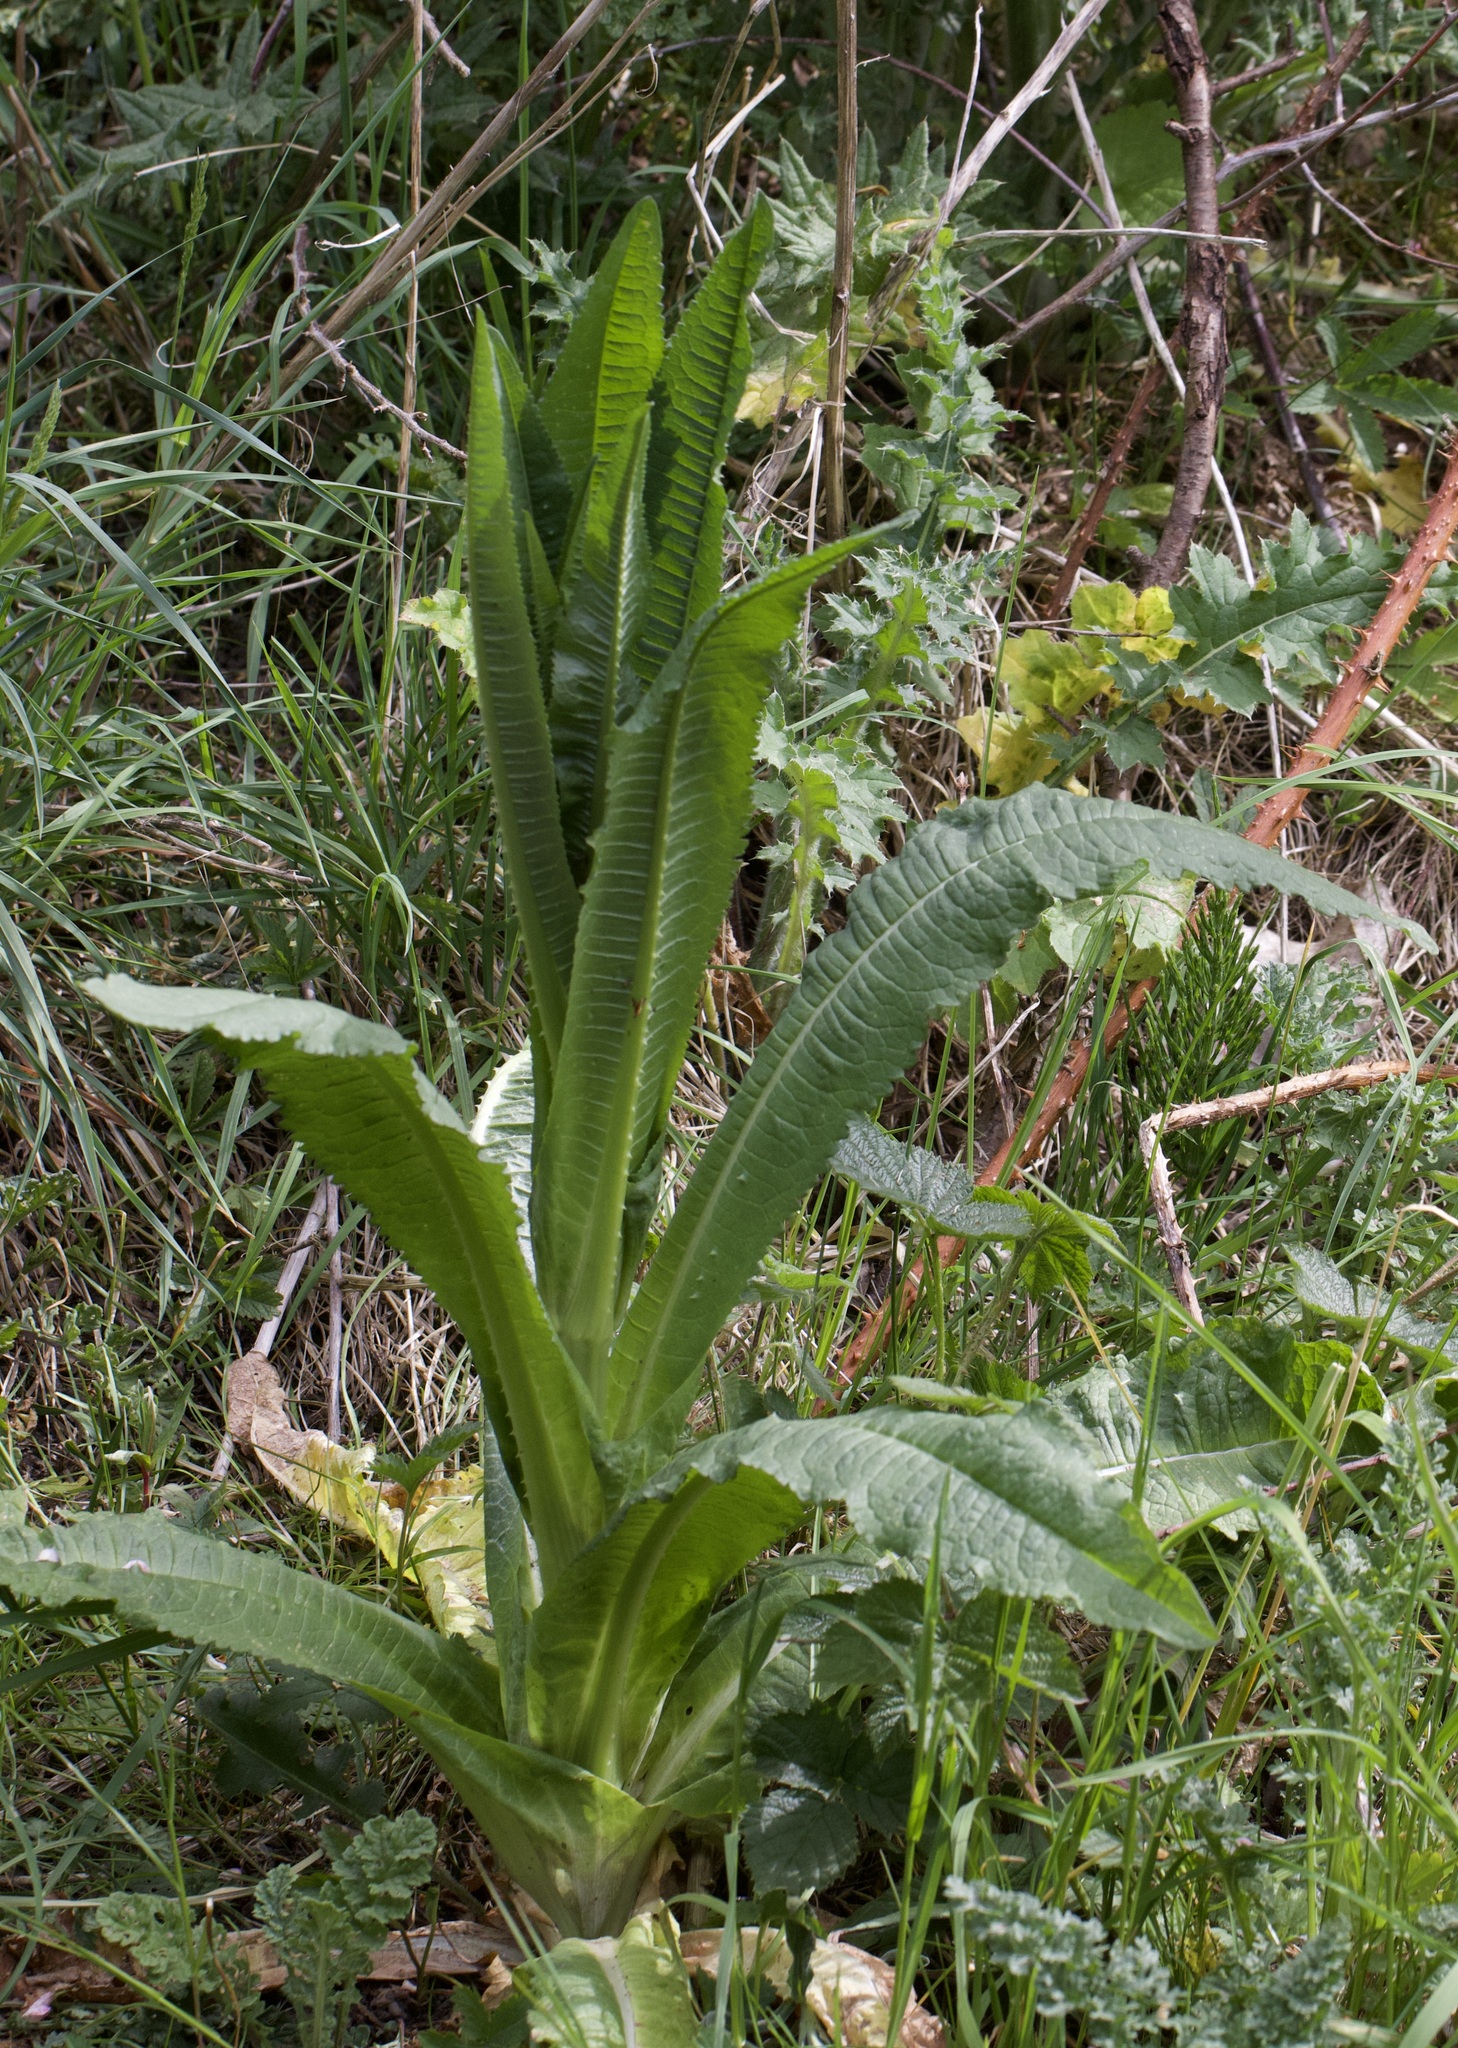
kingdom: Plantae
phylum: Tracheophyta
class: Magnoliopsida
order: Dipsacales
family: Caprifoliaceae
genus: Dipsacus
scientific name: Dipsacus fullonum
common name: Teasel
